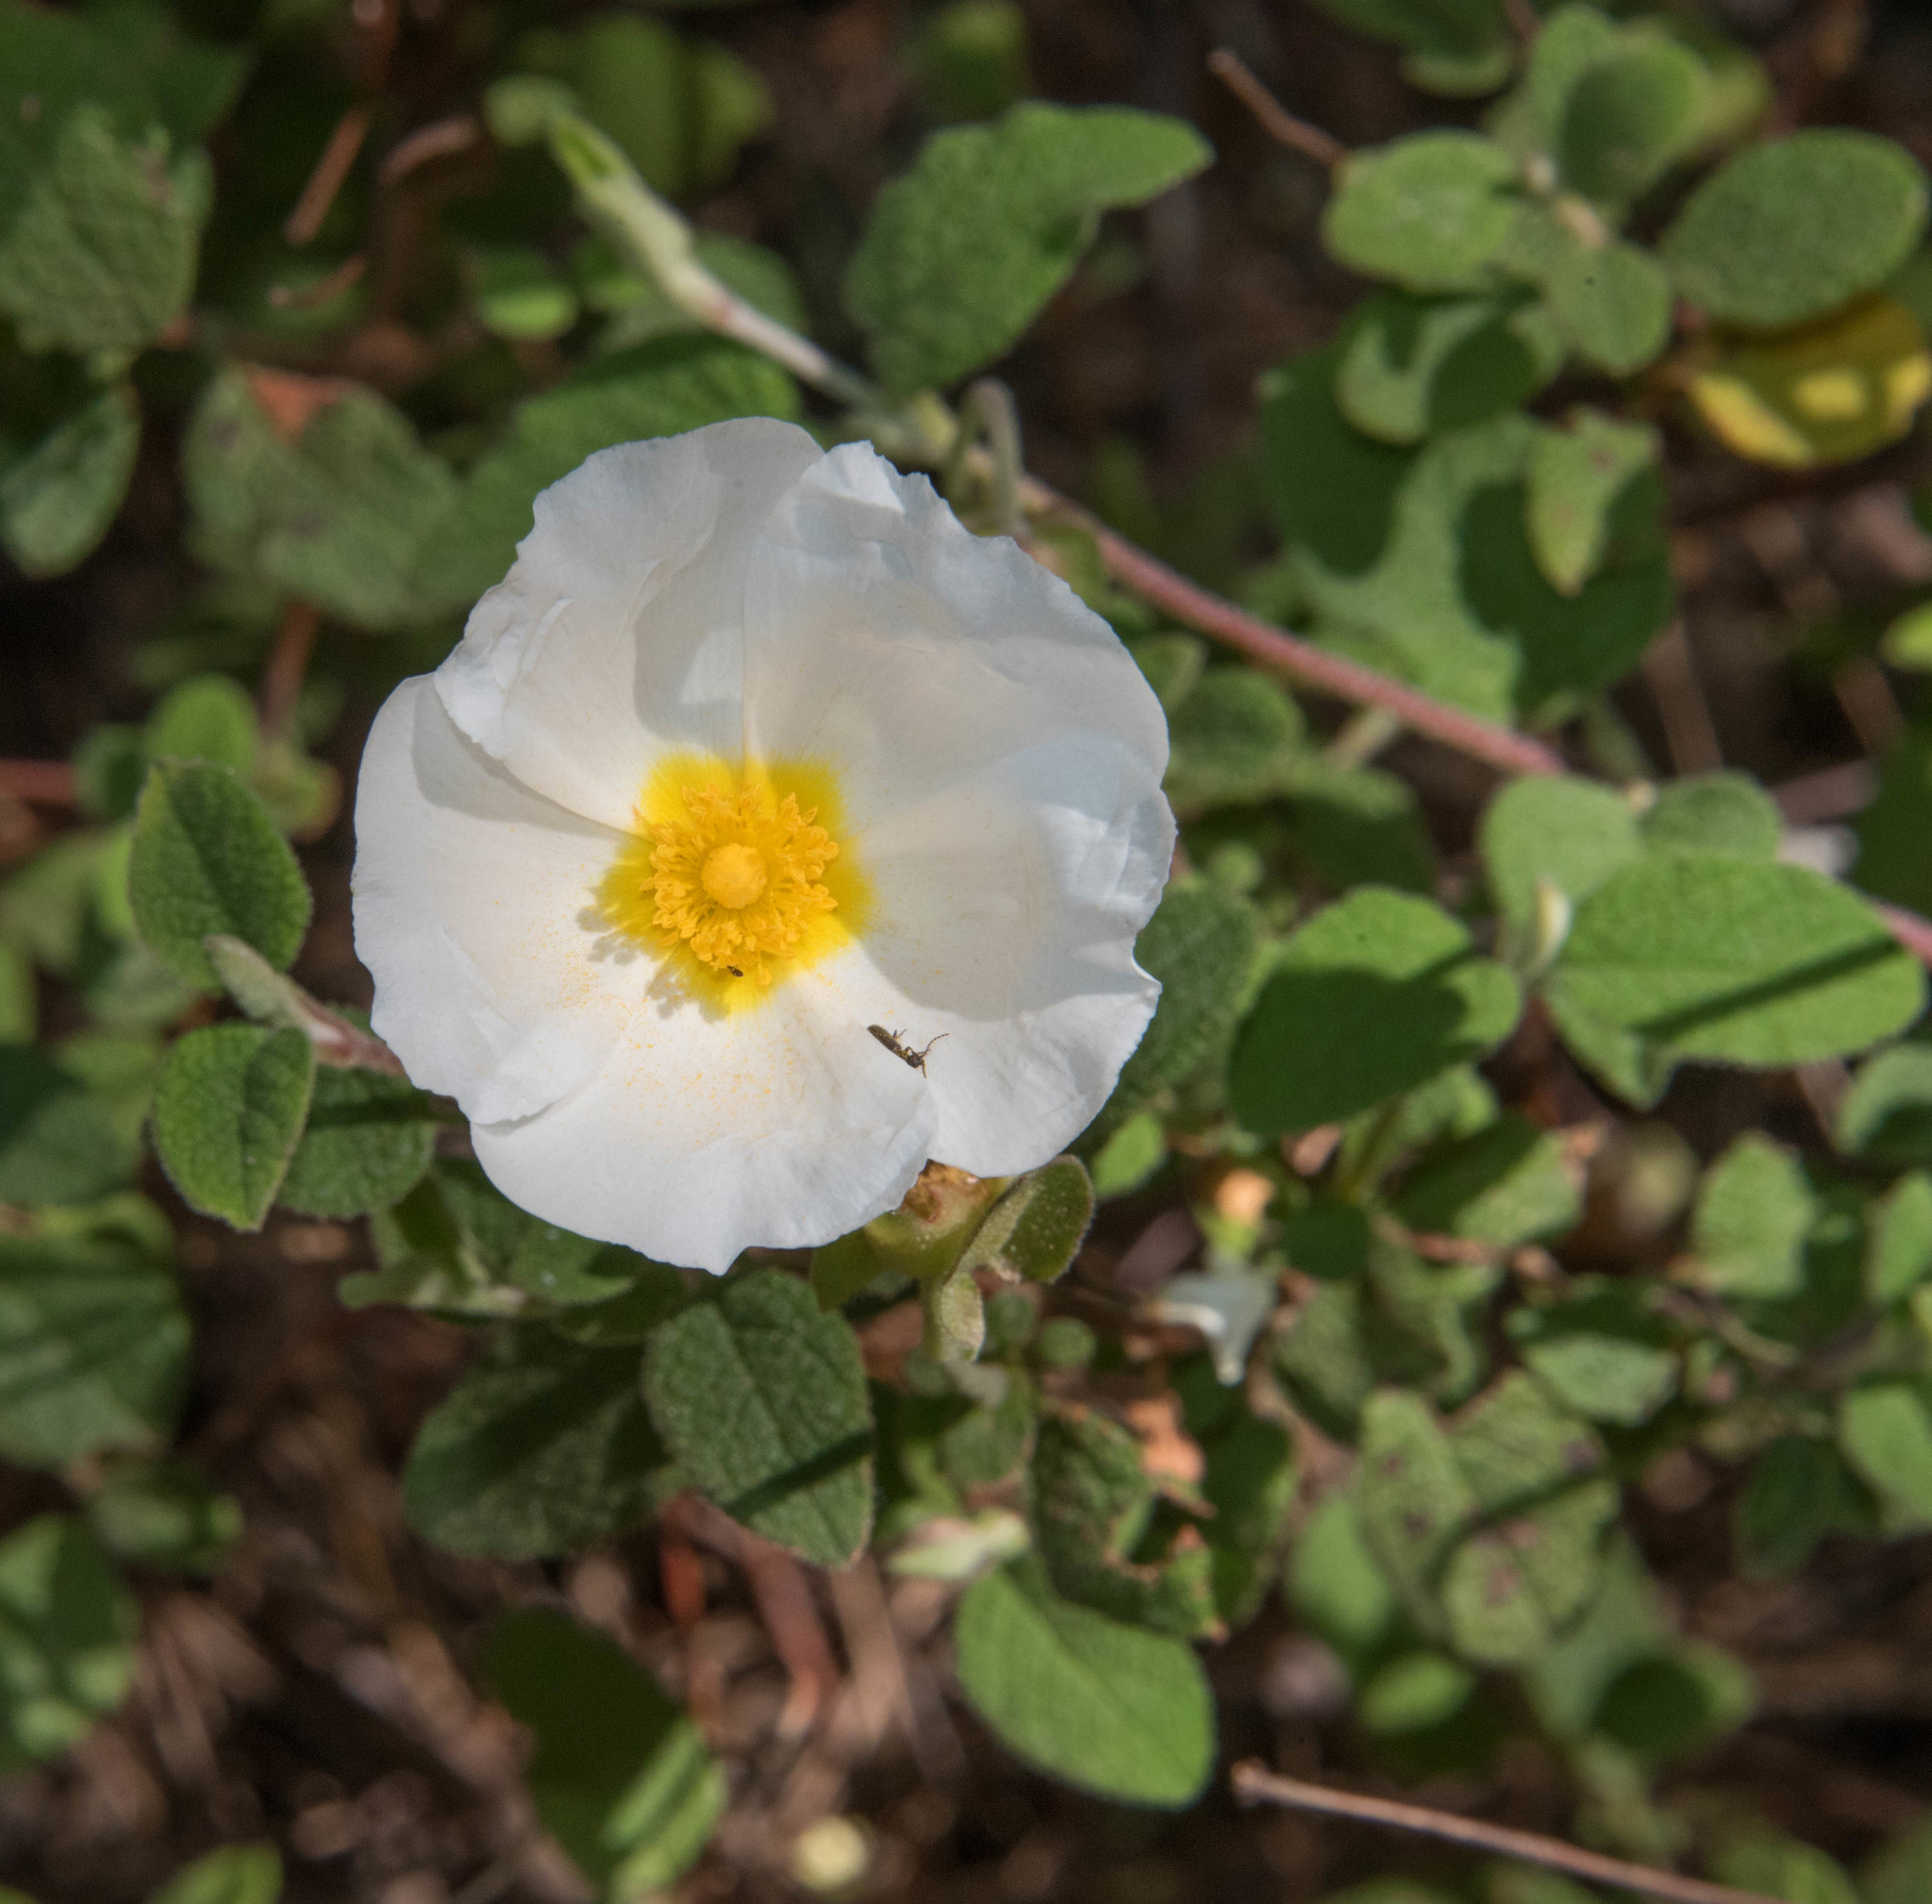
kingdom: Plantae
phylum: Tracheophyta
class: Magnoliopsida
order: Malvales
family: Cistaceae
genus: Cistus
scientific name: Cistus salviifolius
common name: Salvia cistus
